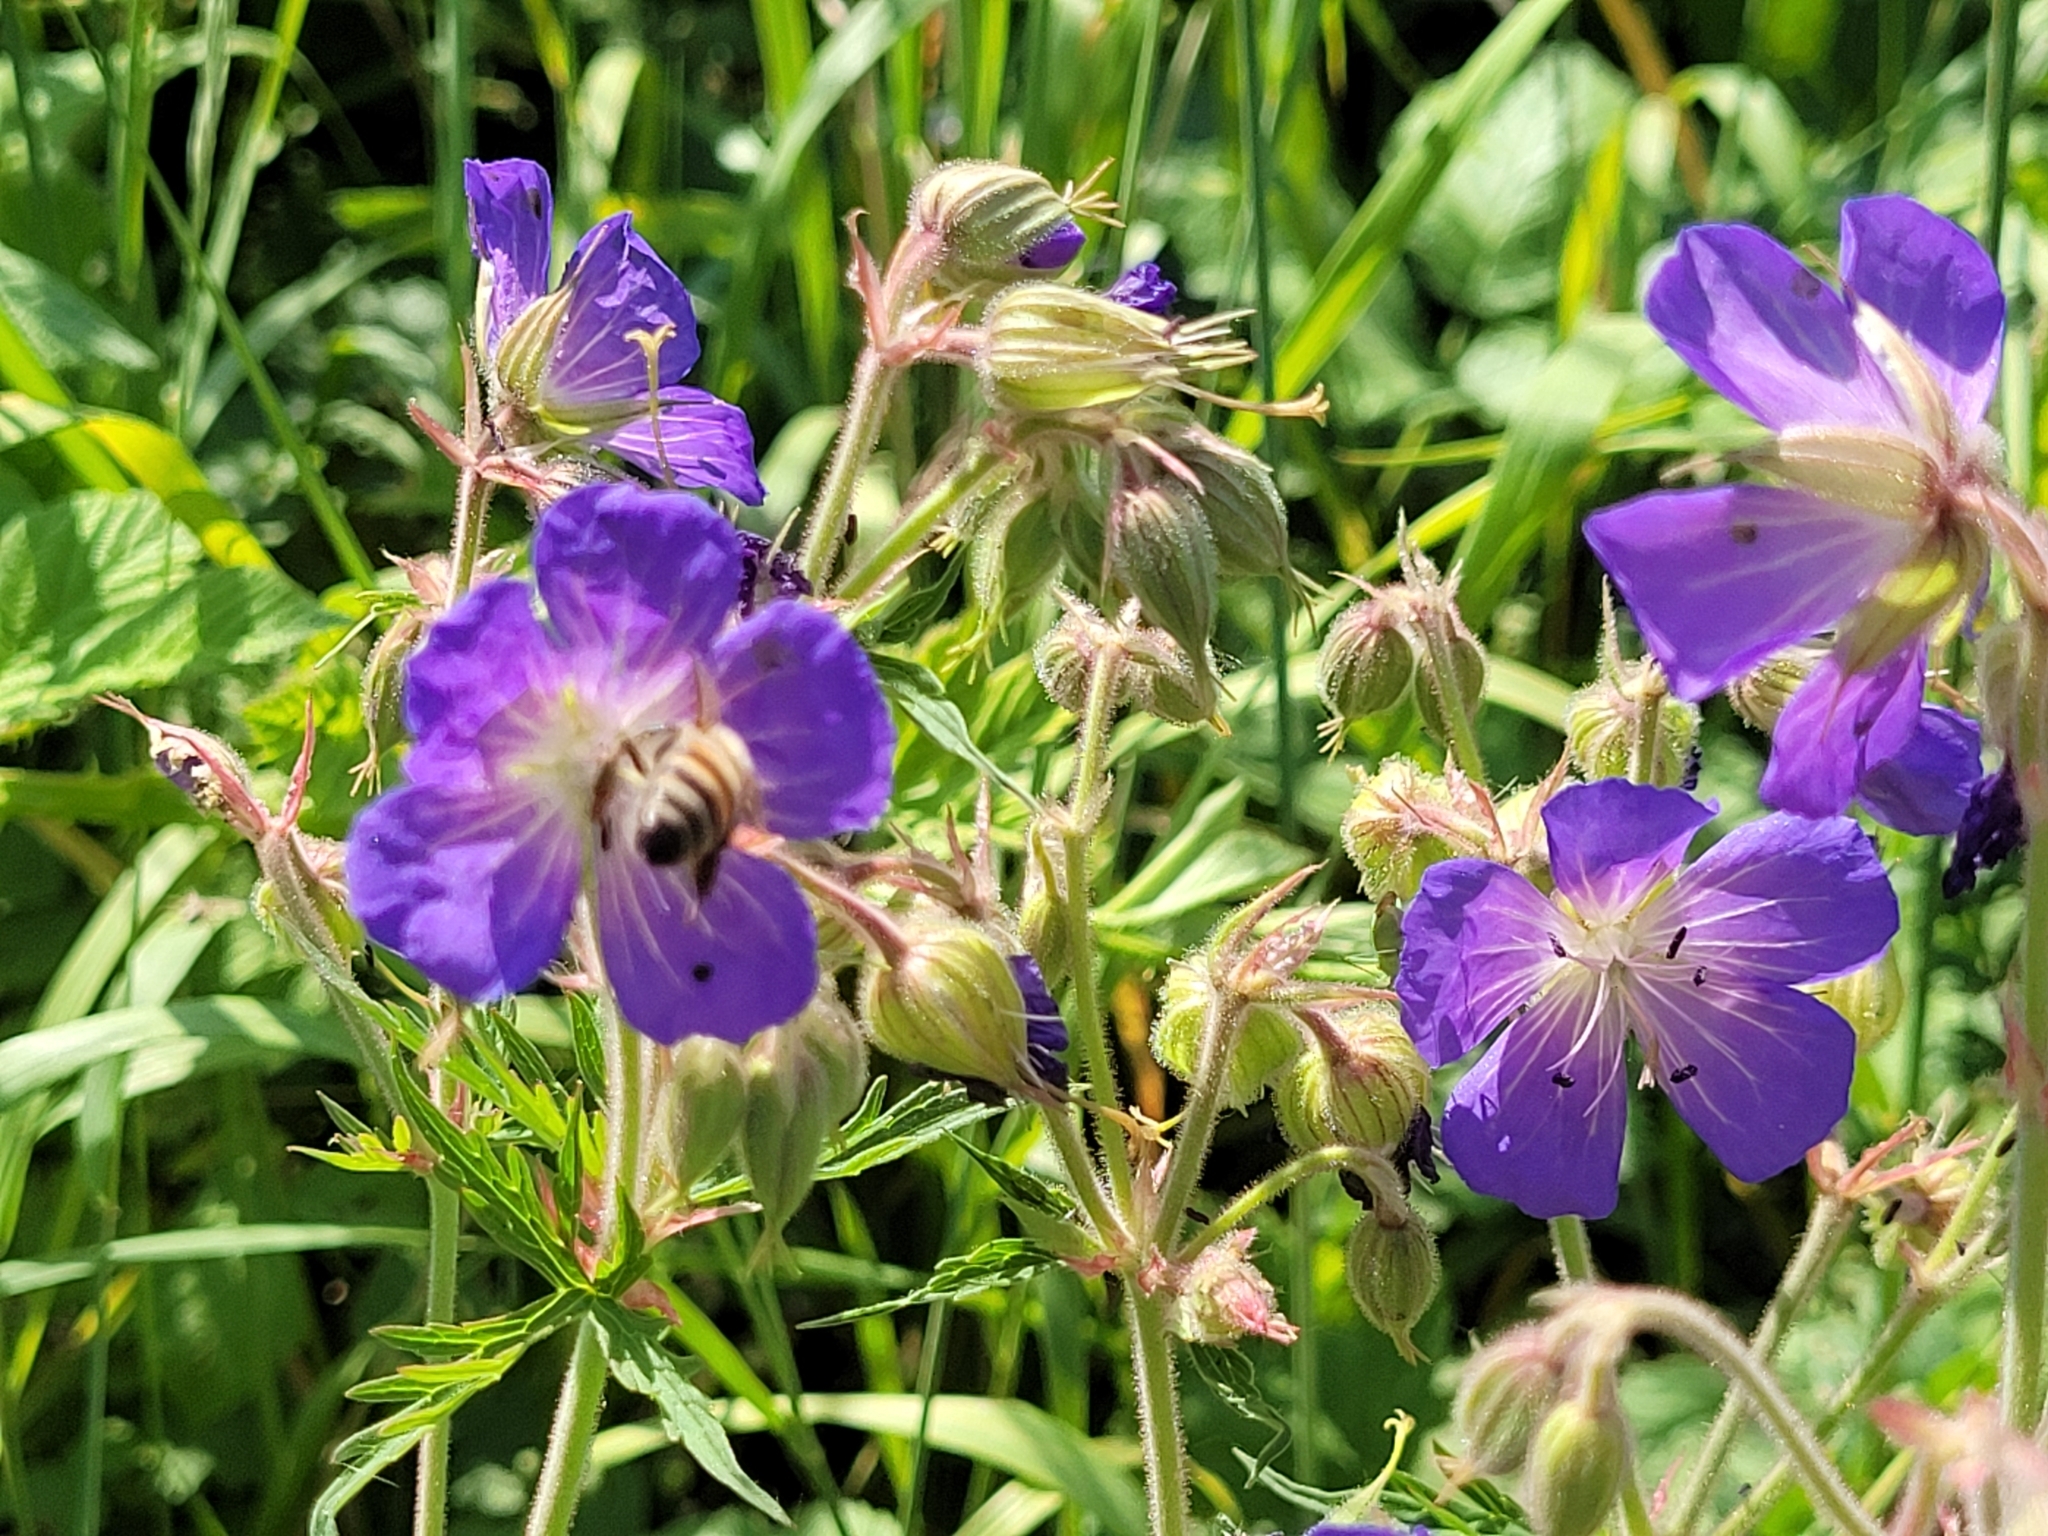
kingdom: Plantae
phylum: Tracheophyta
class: Magnoliopsida
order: Geraniales
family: Geraniaceae
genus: Geranium
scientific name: Geranium pratense
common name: Meadow crane's-bill
